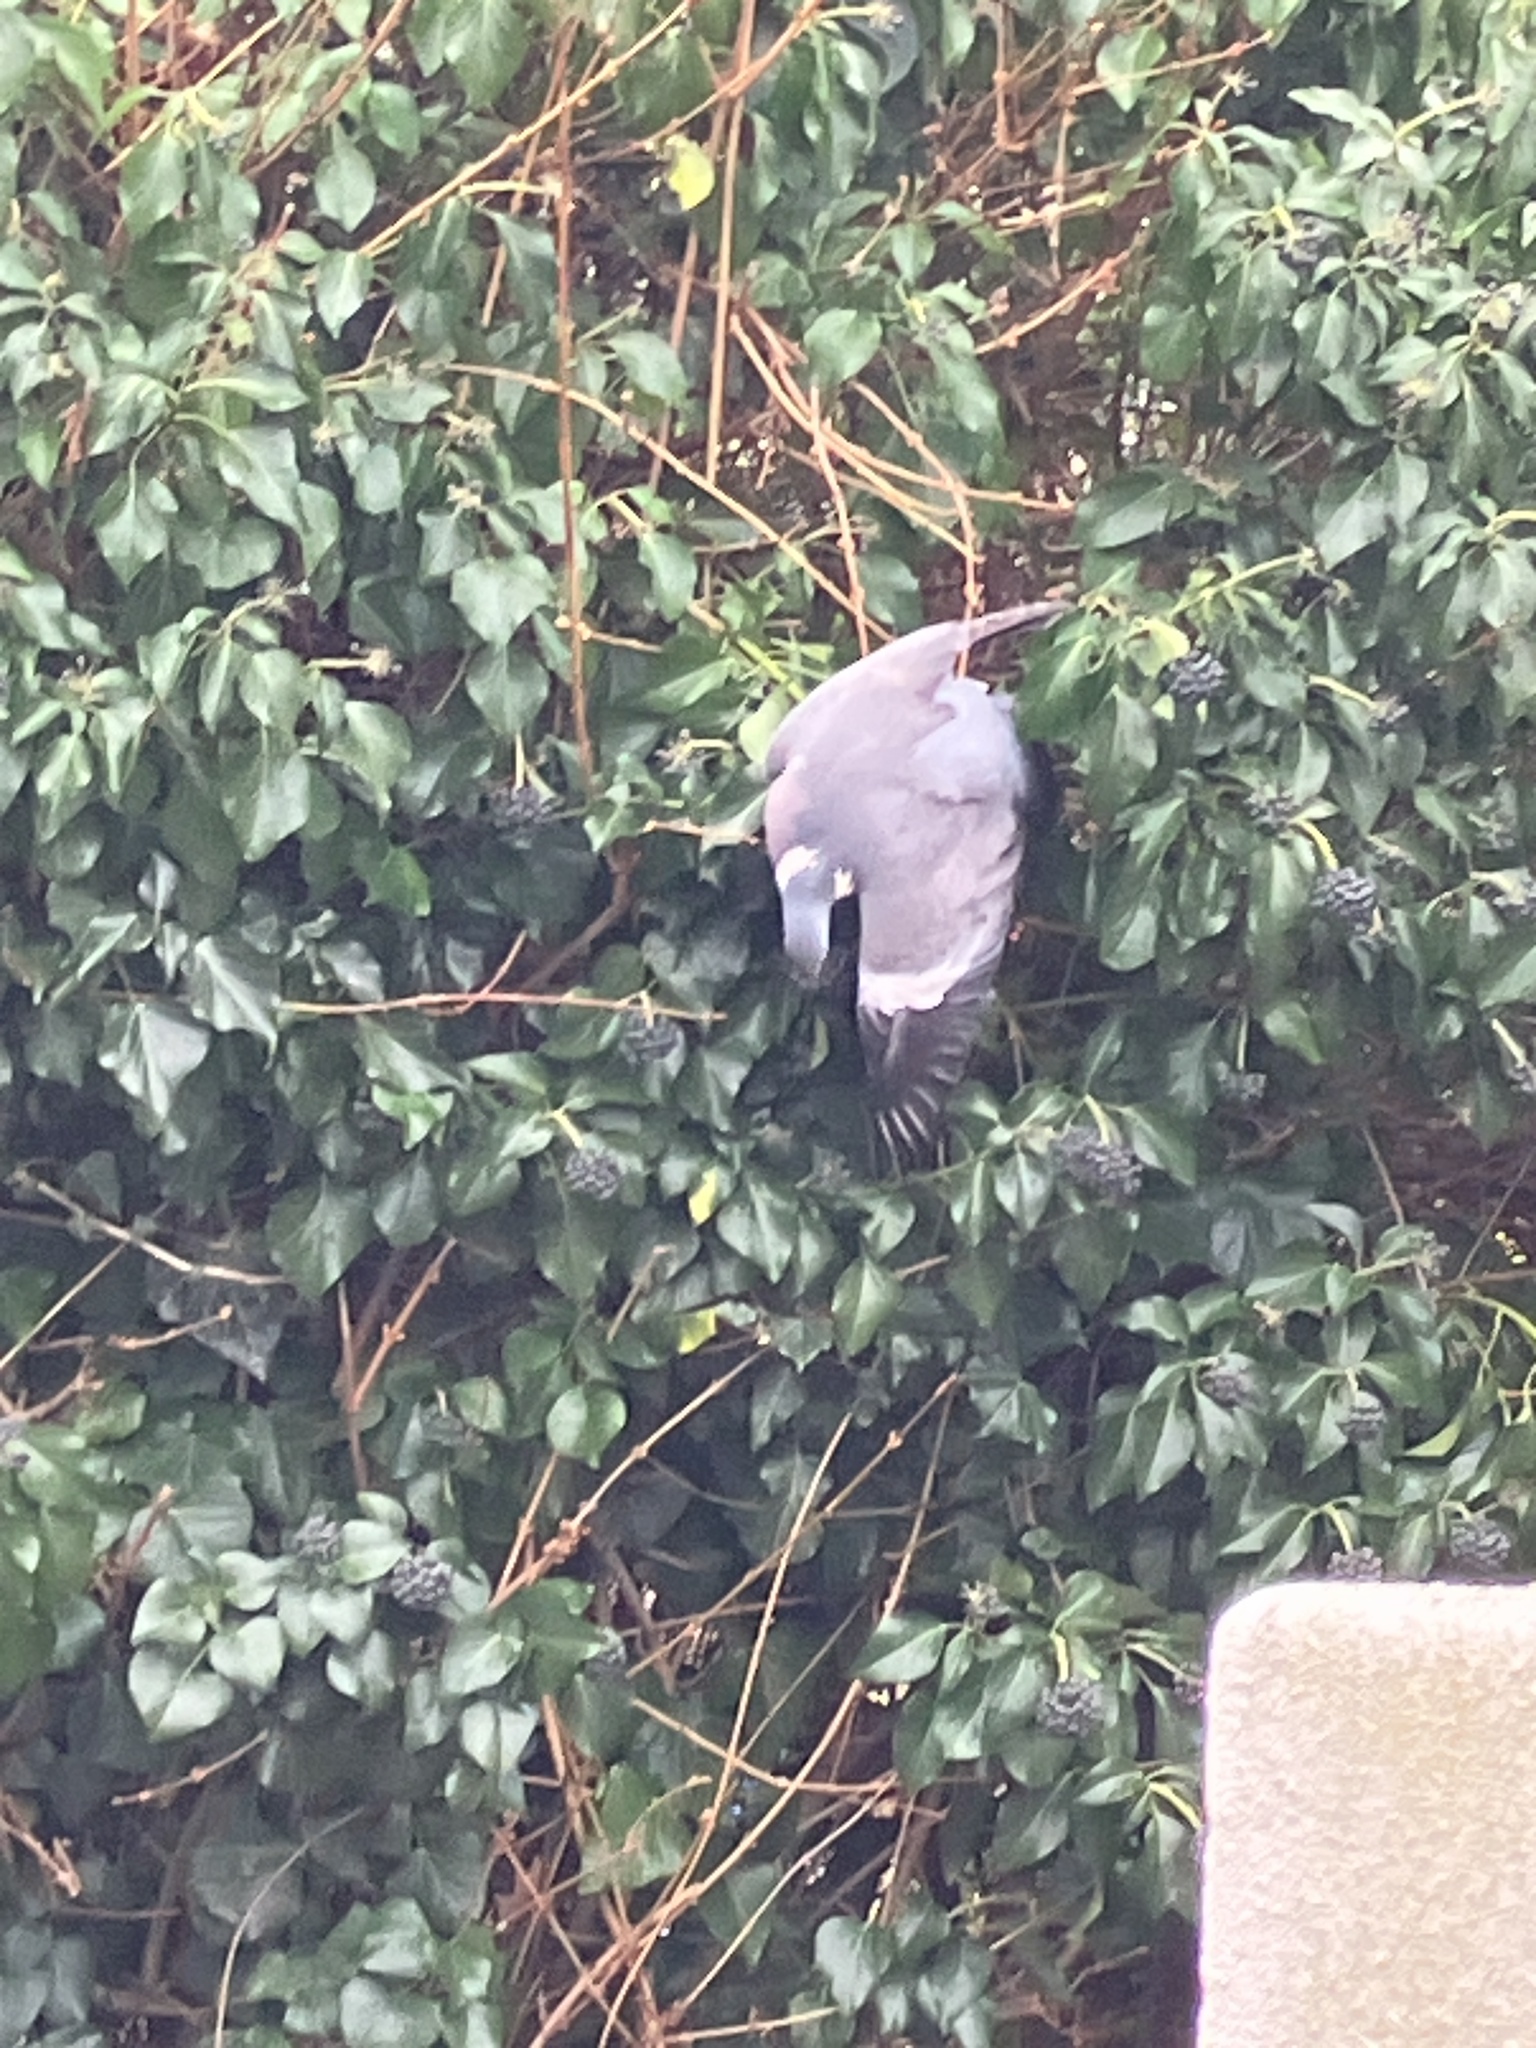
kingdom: Animalia
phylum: Chordata
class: Aves
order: Columbiformes
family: Columbidae
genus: Columba
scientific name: Columba palumbus
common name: Common wood pigeon
